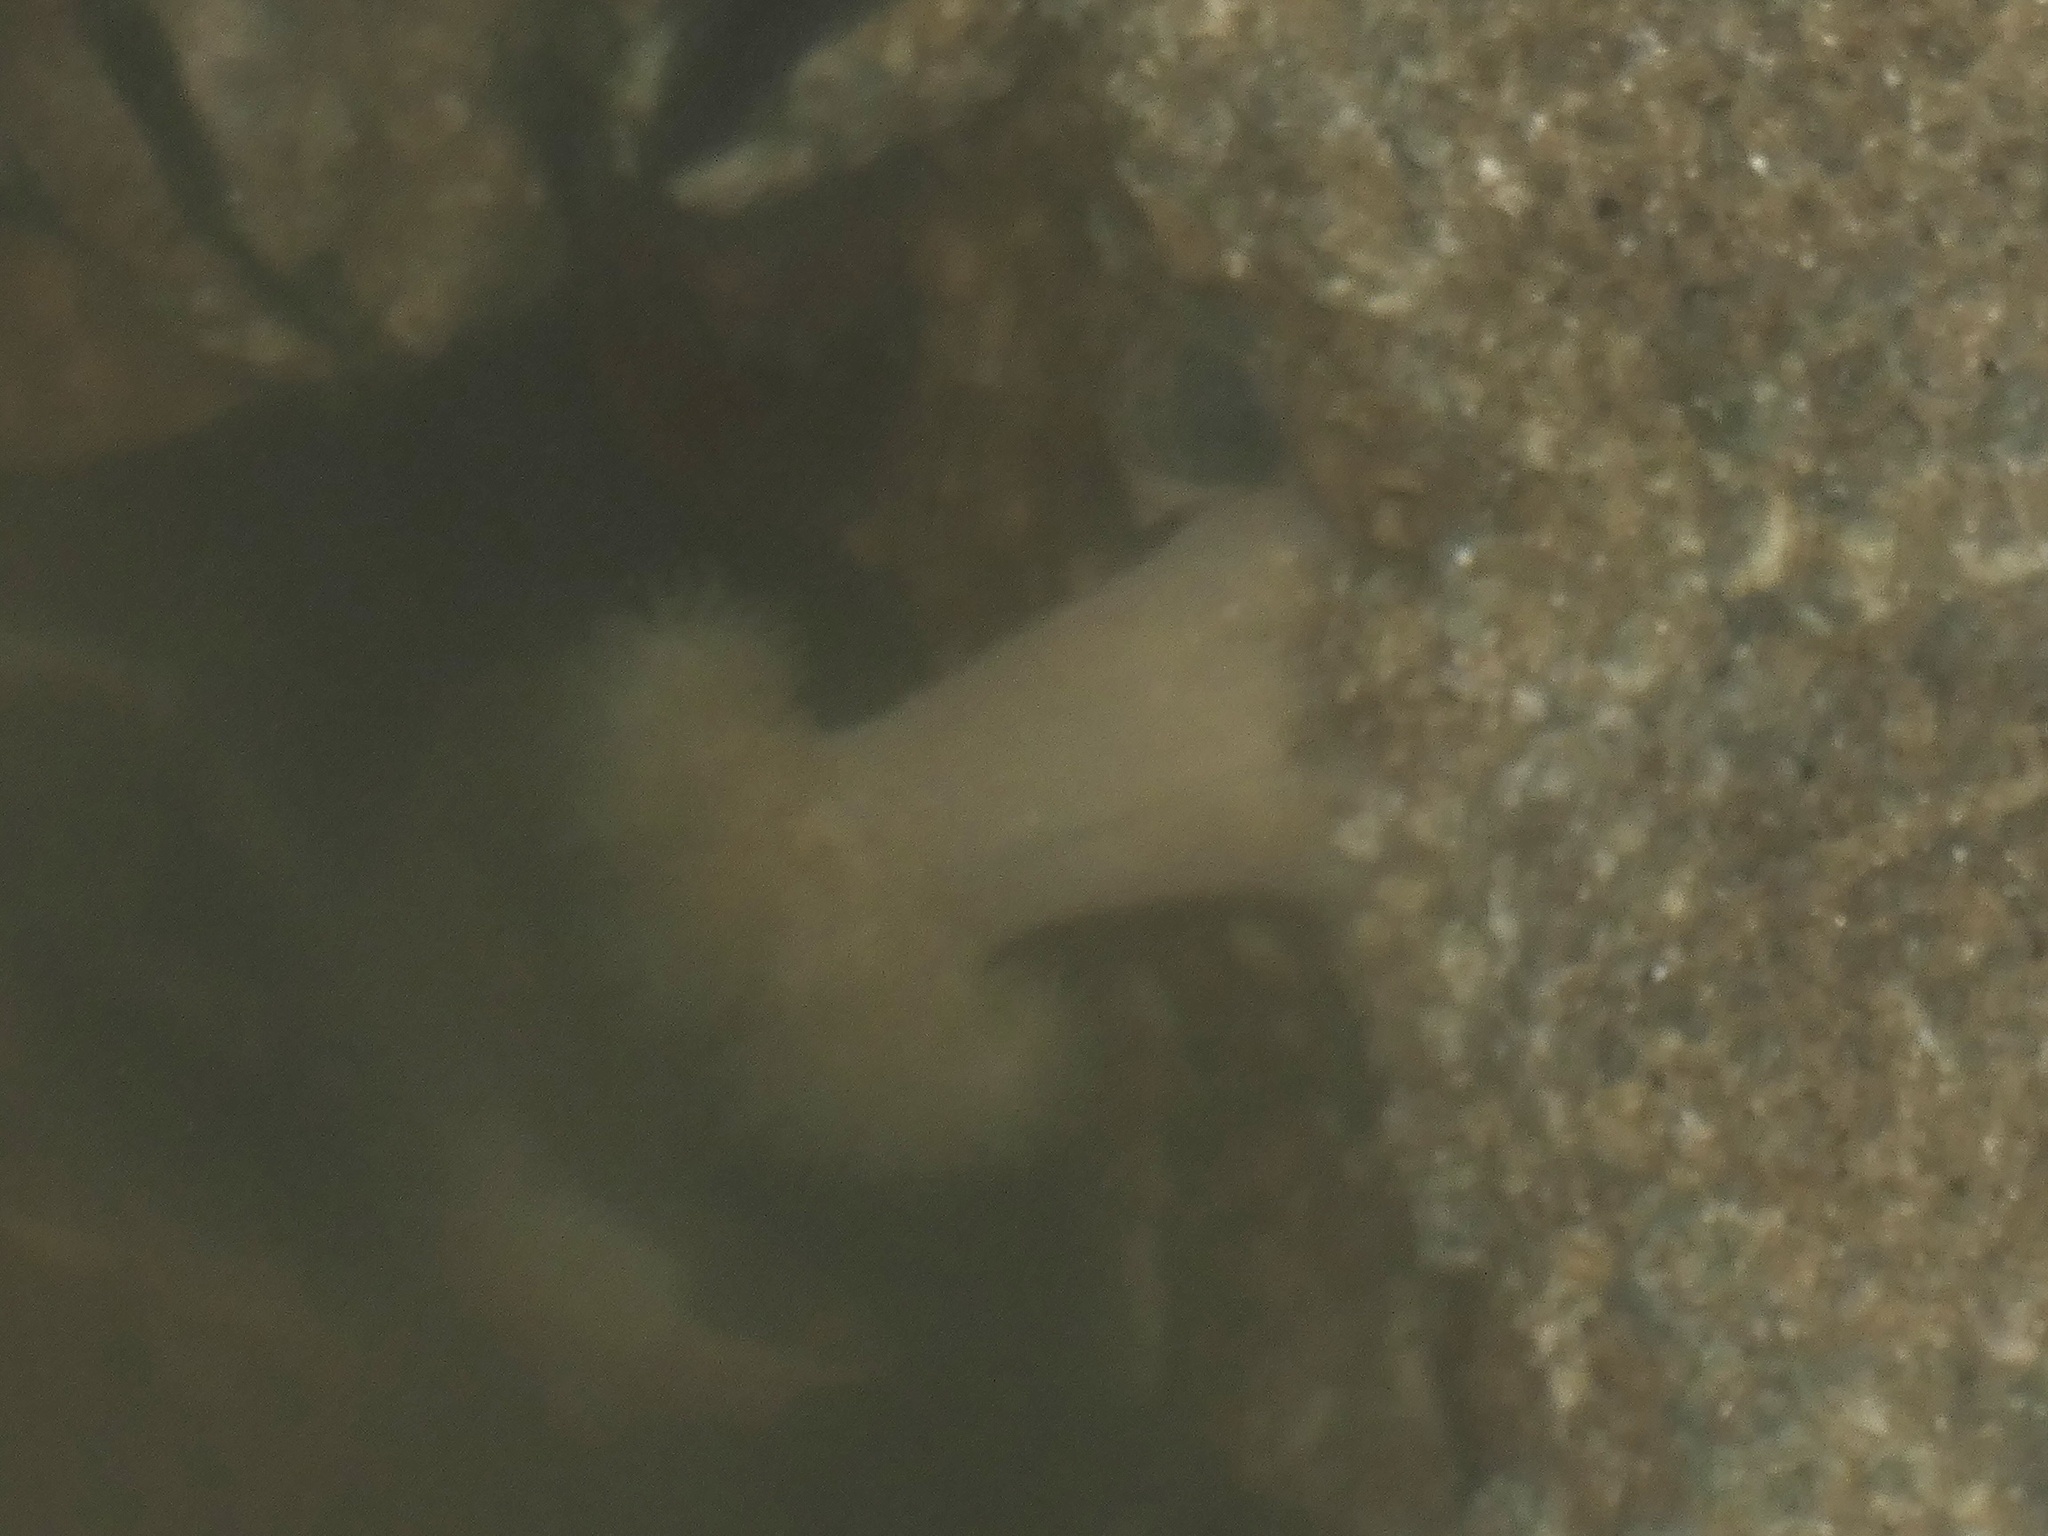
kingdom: Animalia
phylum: Cnidaria
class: Anthozoa
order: Actiniaria
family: Metridiidae
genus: Metridium
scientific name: Metridium senile
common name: Clonal plumose anemone
